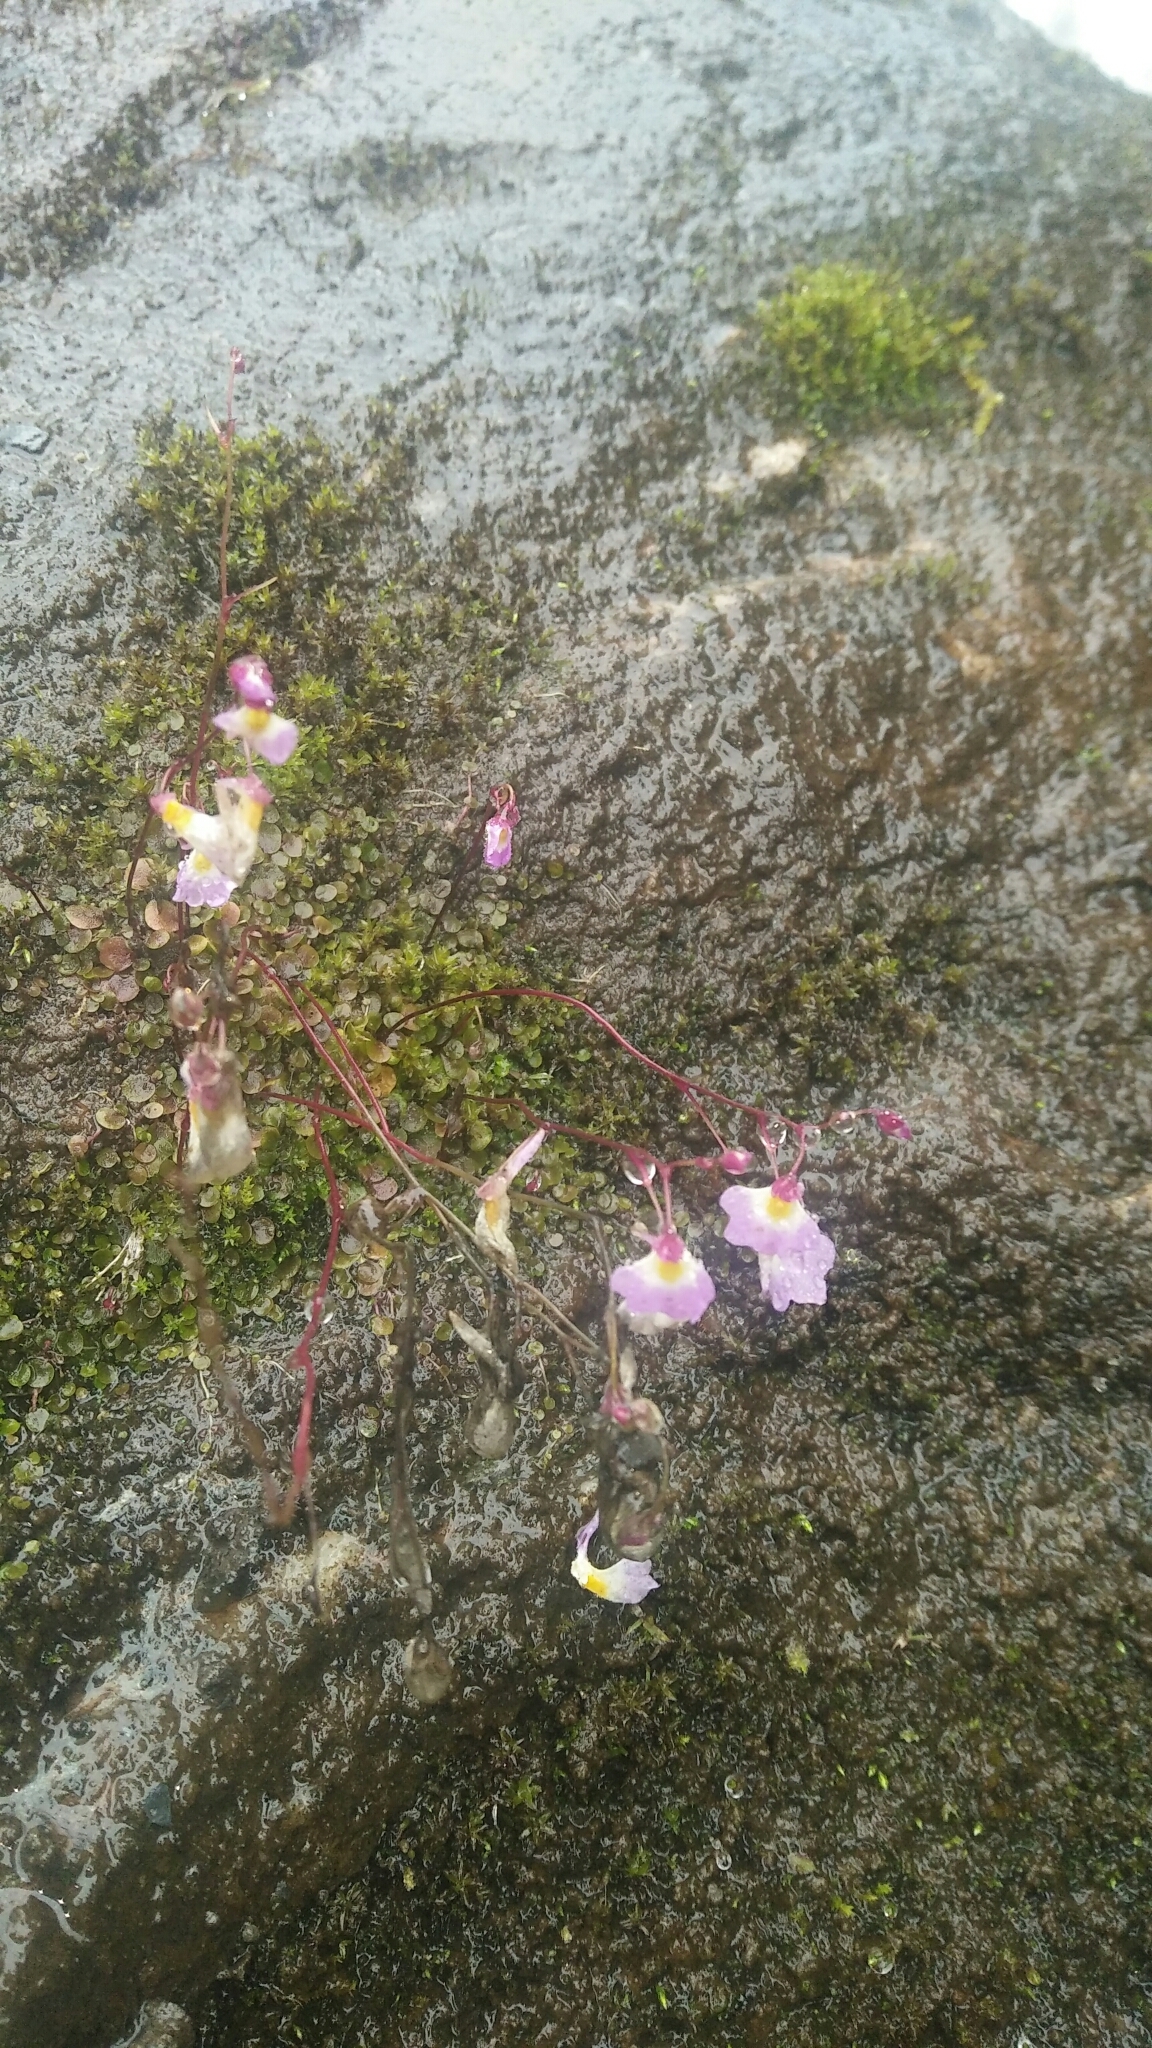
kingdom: Plantae
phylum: Tracheophyta
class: Magnoliopsida
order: Lamiales
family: Lentibulariaceae
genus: Utricularia
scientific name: Utricularia striatula
